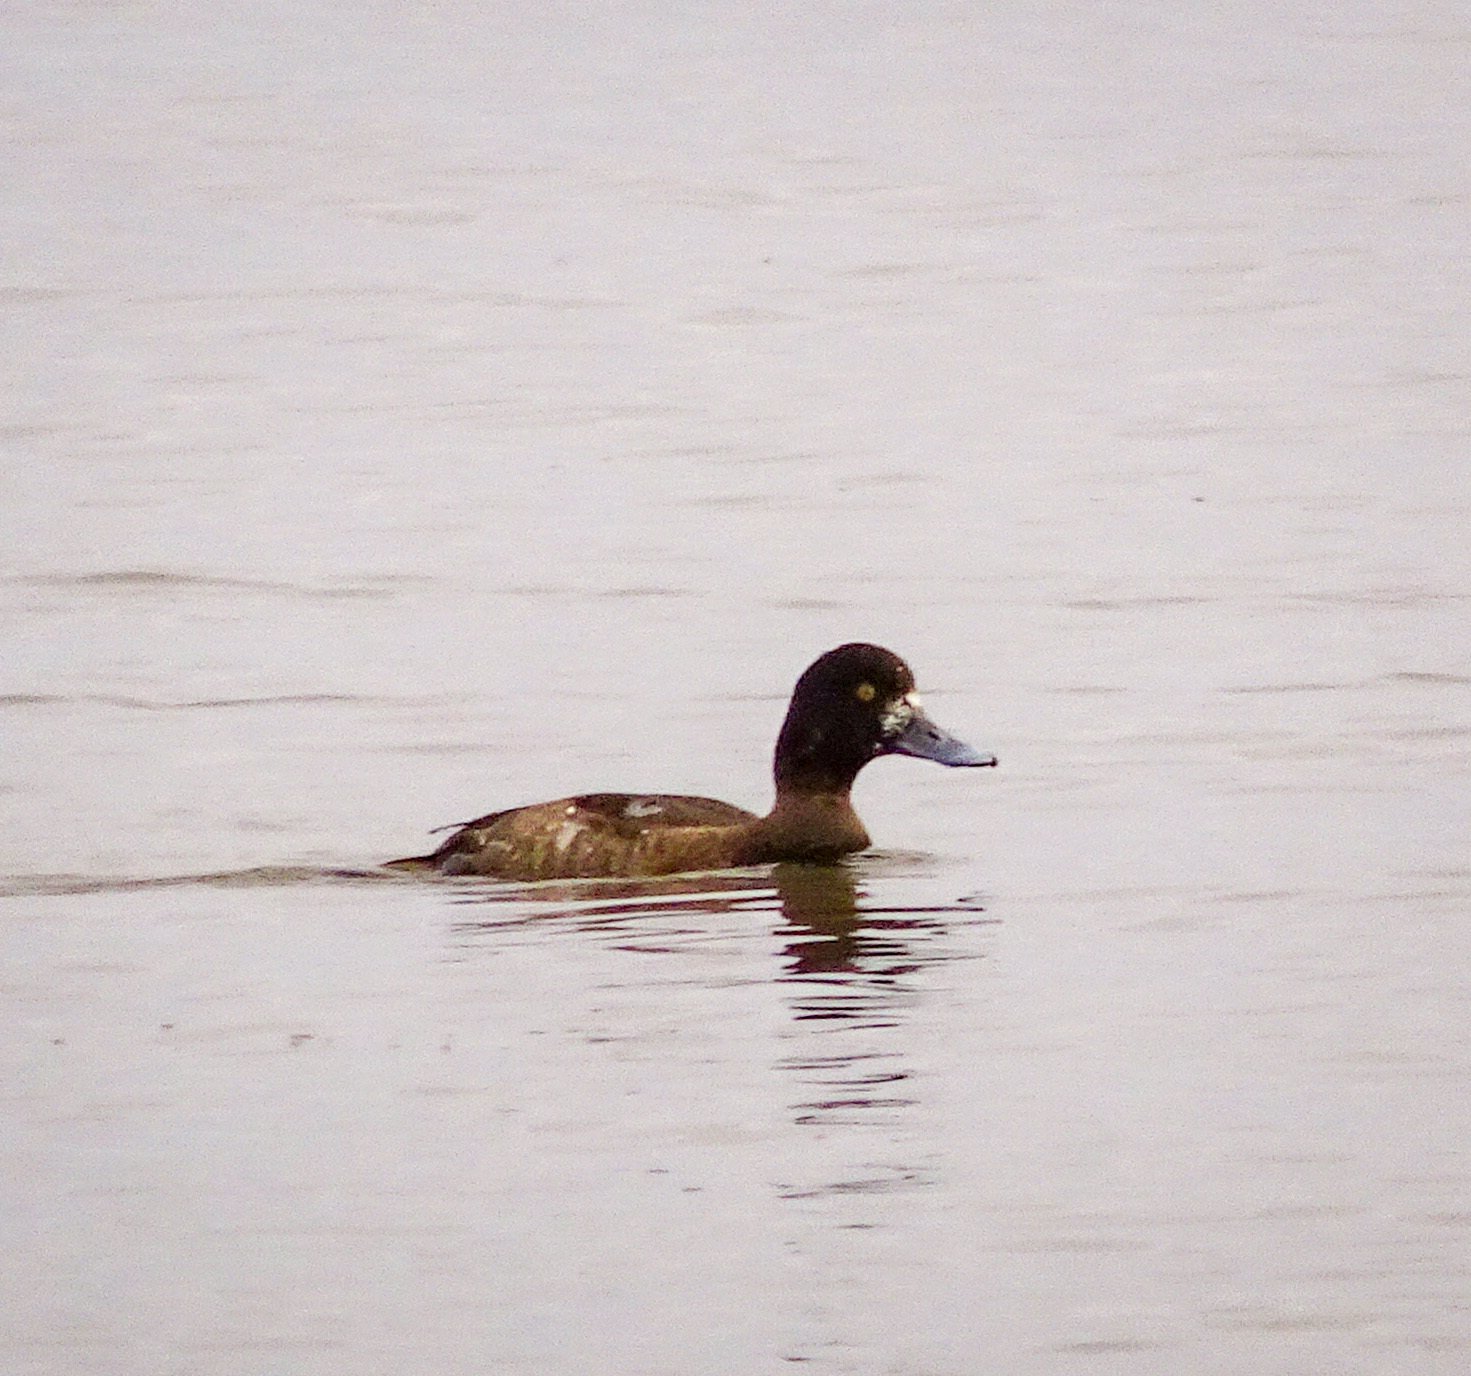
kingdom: Animalia
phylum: Chordata
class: Aves
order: Anseriformes
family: Anatidae
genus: Aythya
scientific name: Aythya affinis
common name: Lesser scaup
